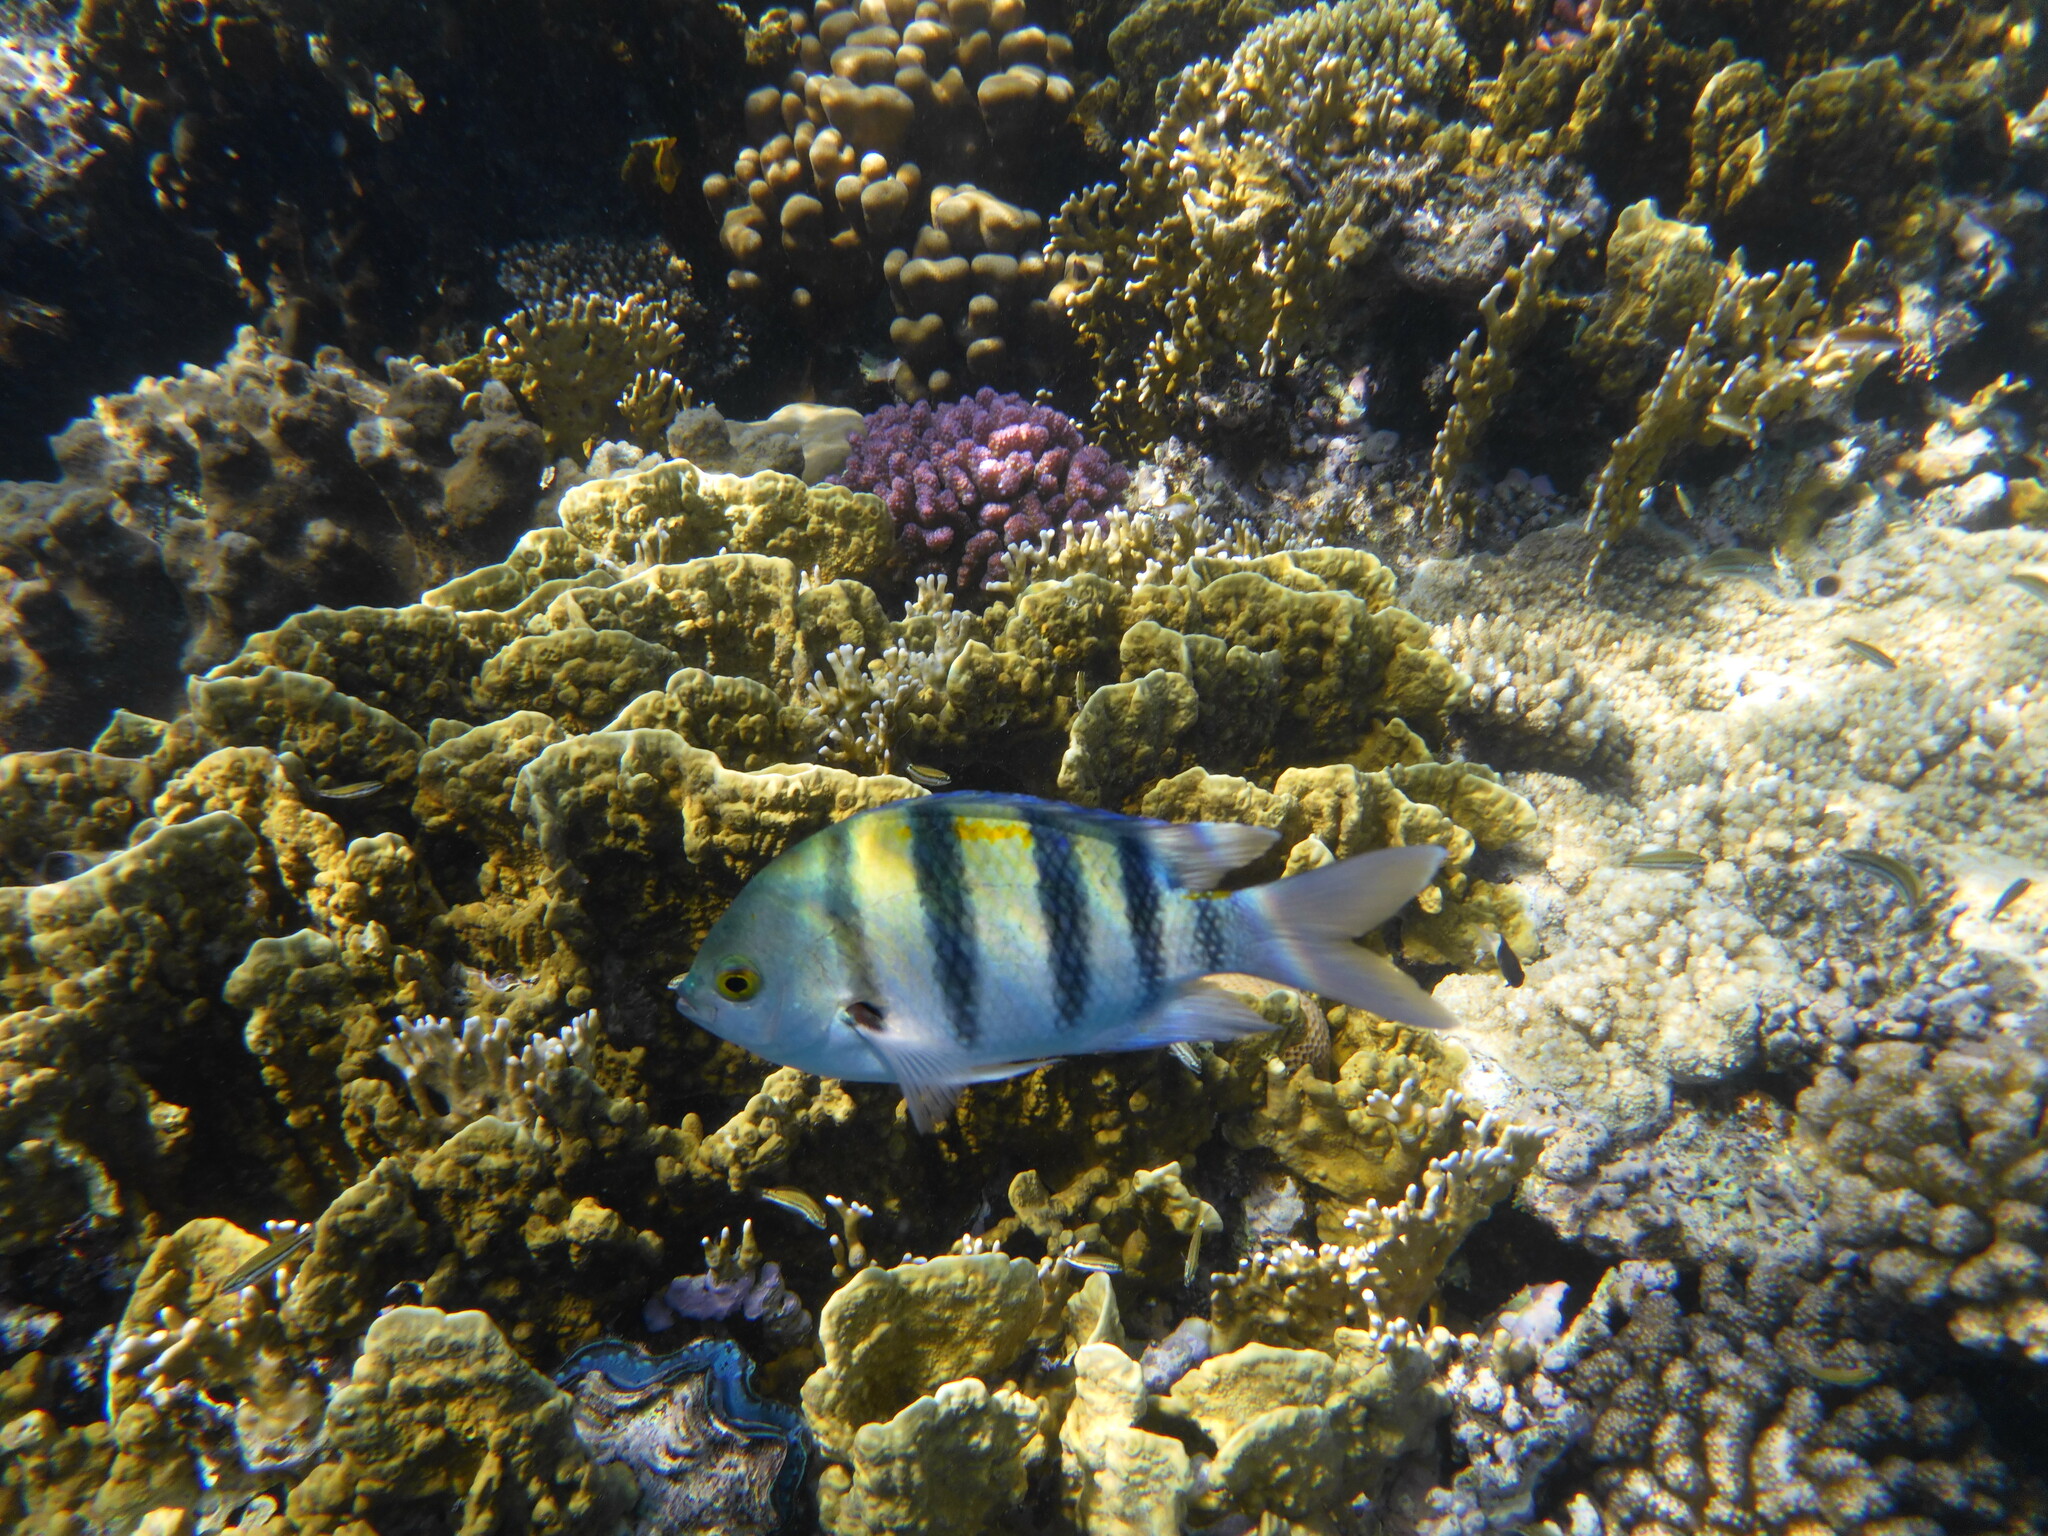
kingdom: Animalia
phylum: Chordata
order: Perciformes
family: Pomacentridae
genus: Abudefduf
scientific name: Abudefduf vaigiensis
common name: Indo-pacific sergeant
